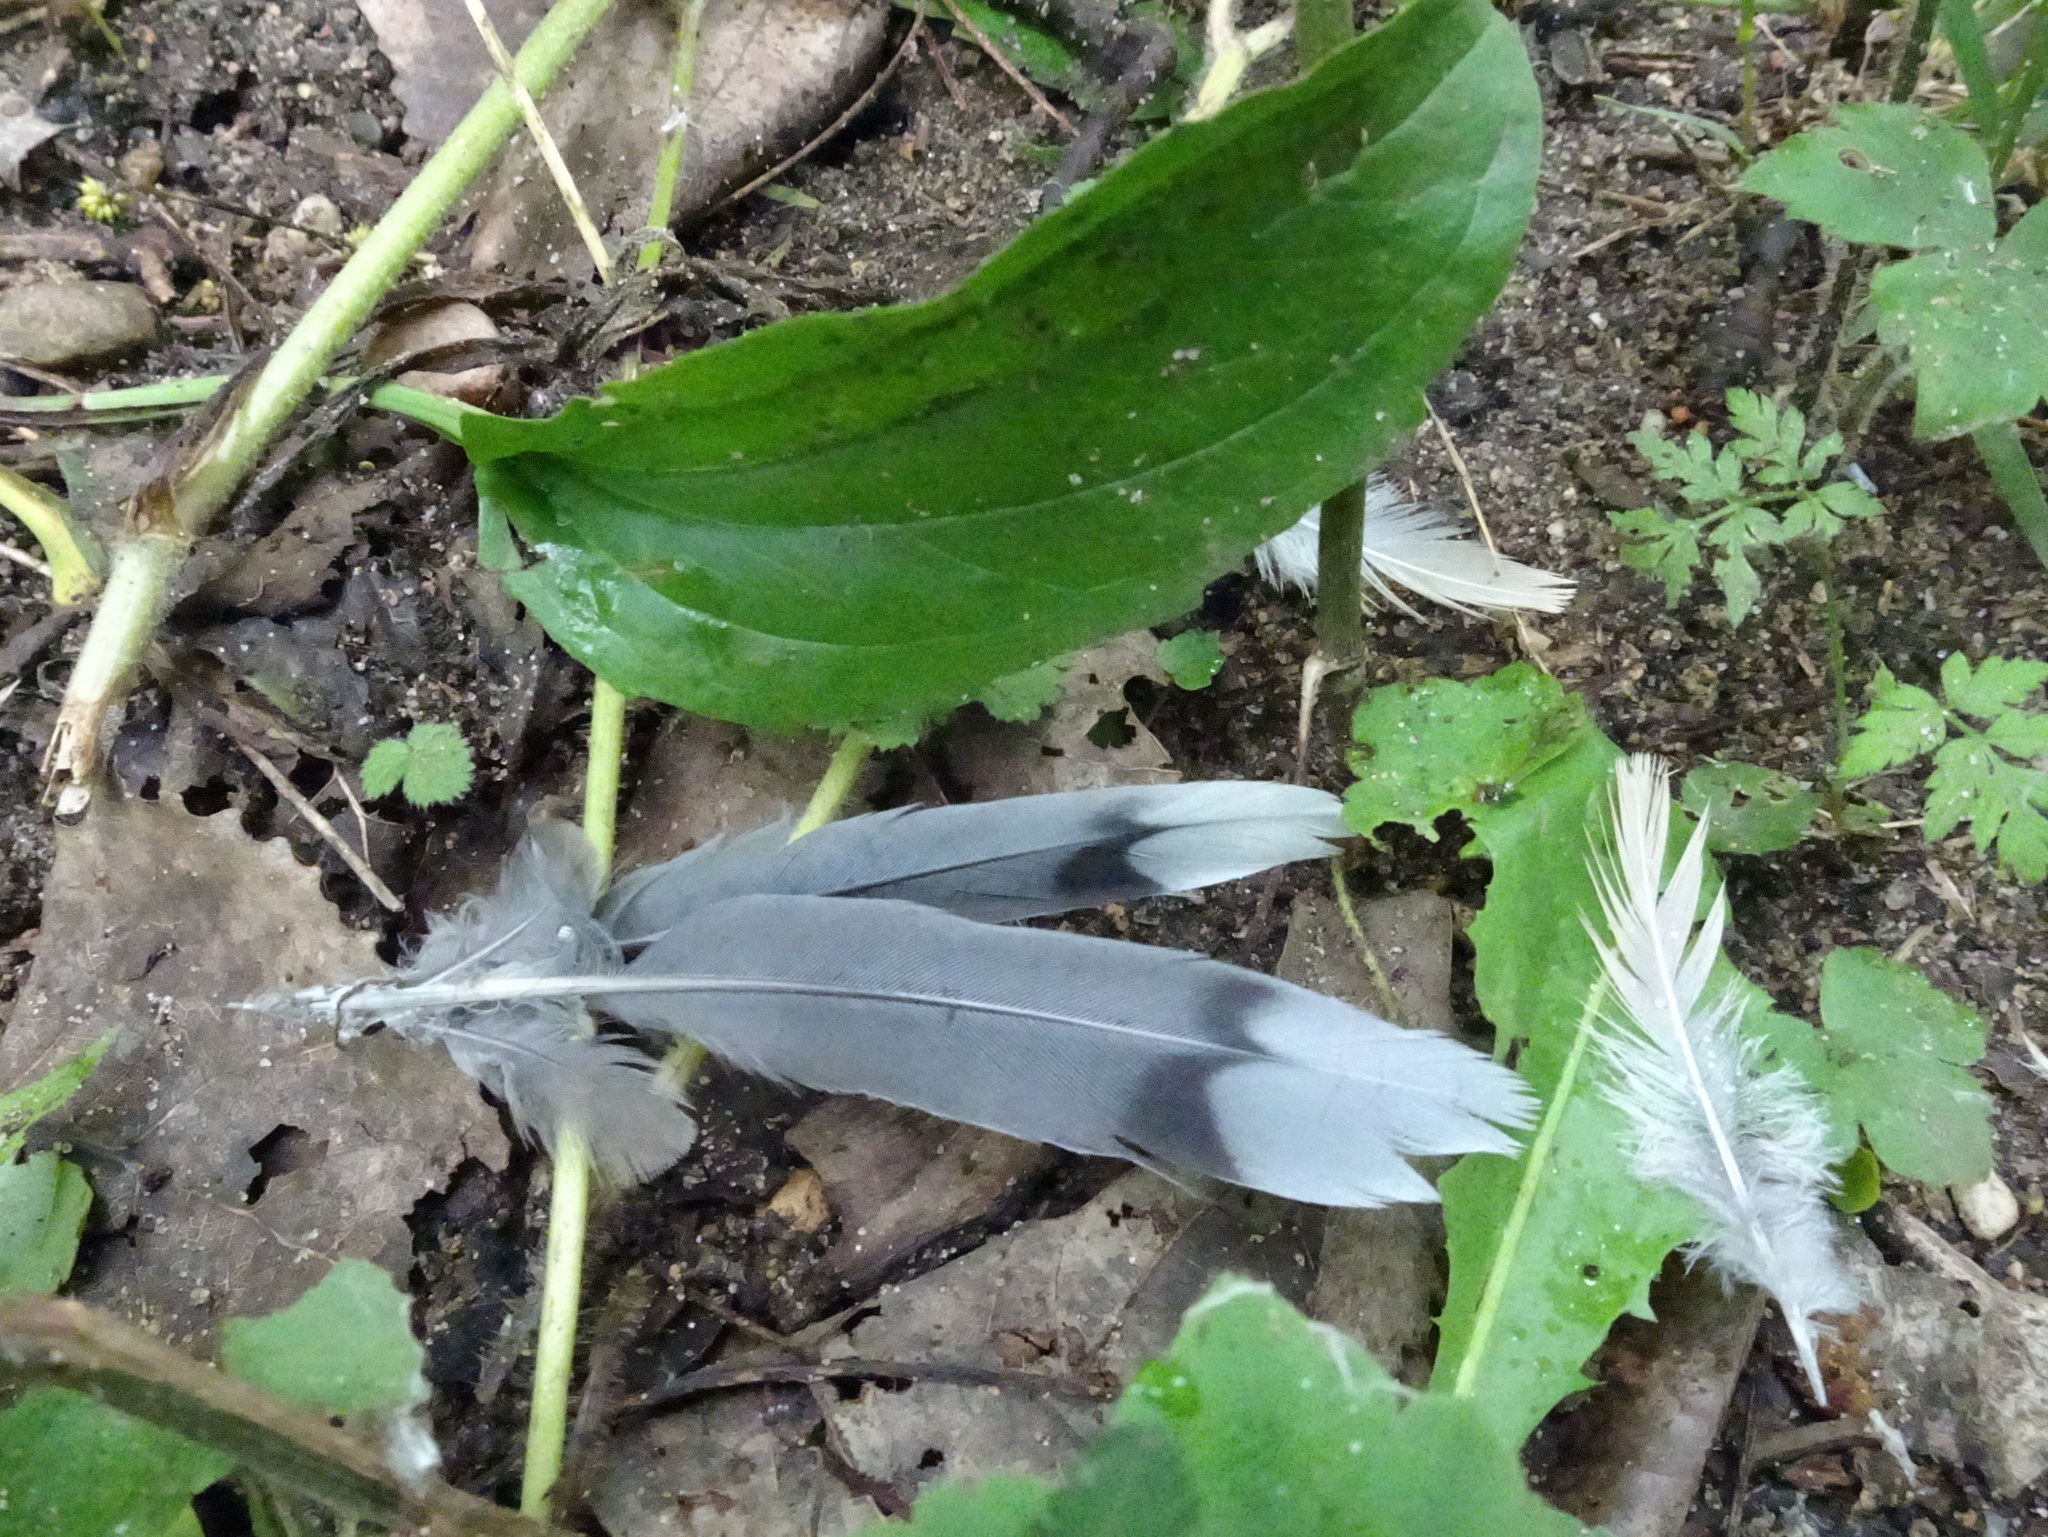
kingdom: Animalia
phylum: Chordata
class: Aves
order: Columbiformes
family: Columbidae
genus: Zenaida
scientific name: Zenaida macroura
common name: Mourning dove
